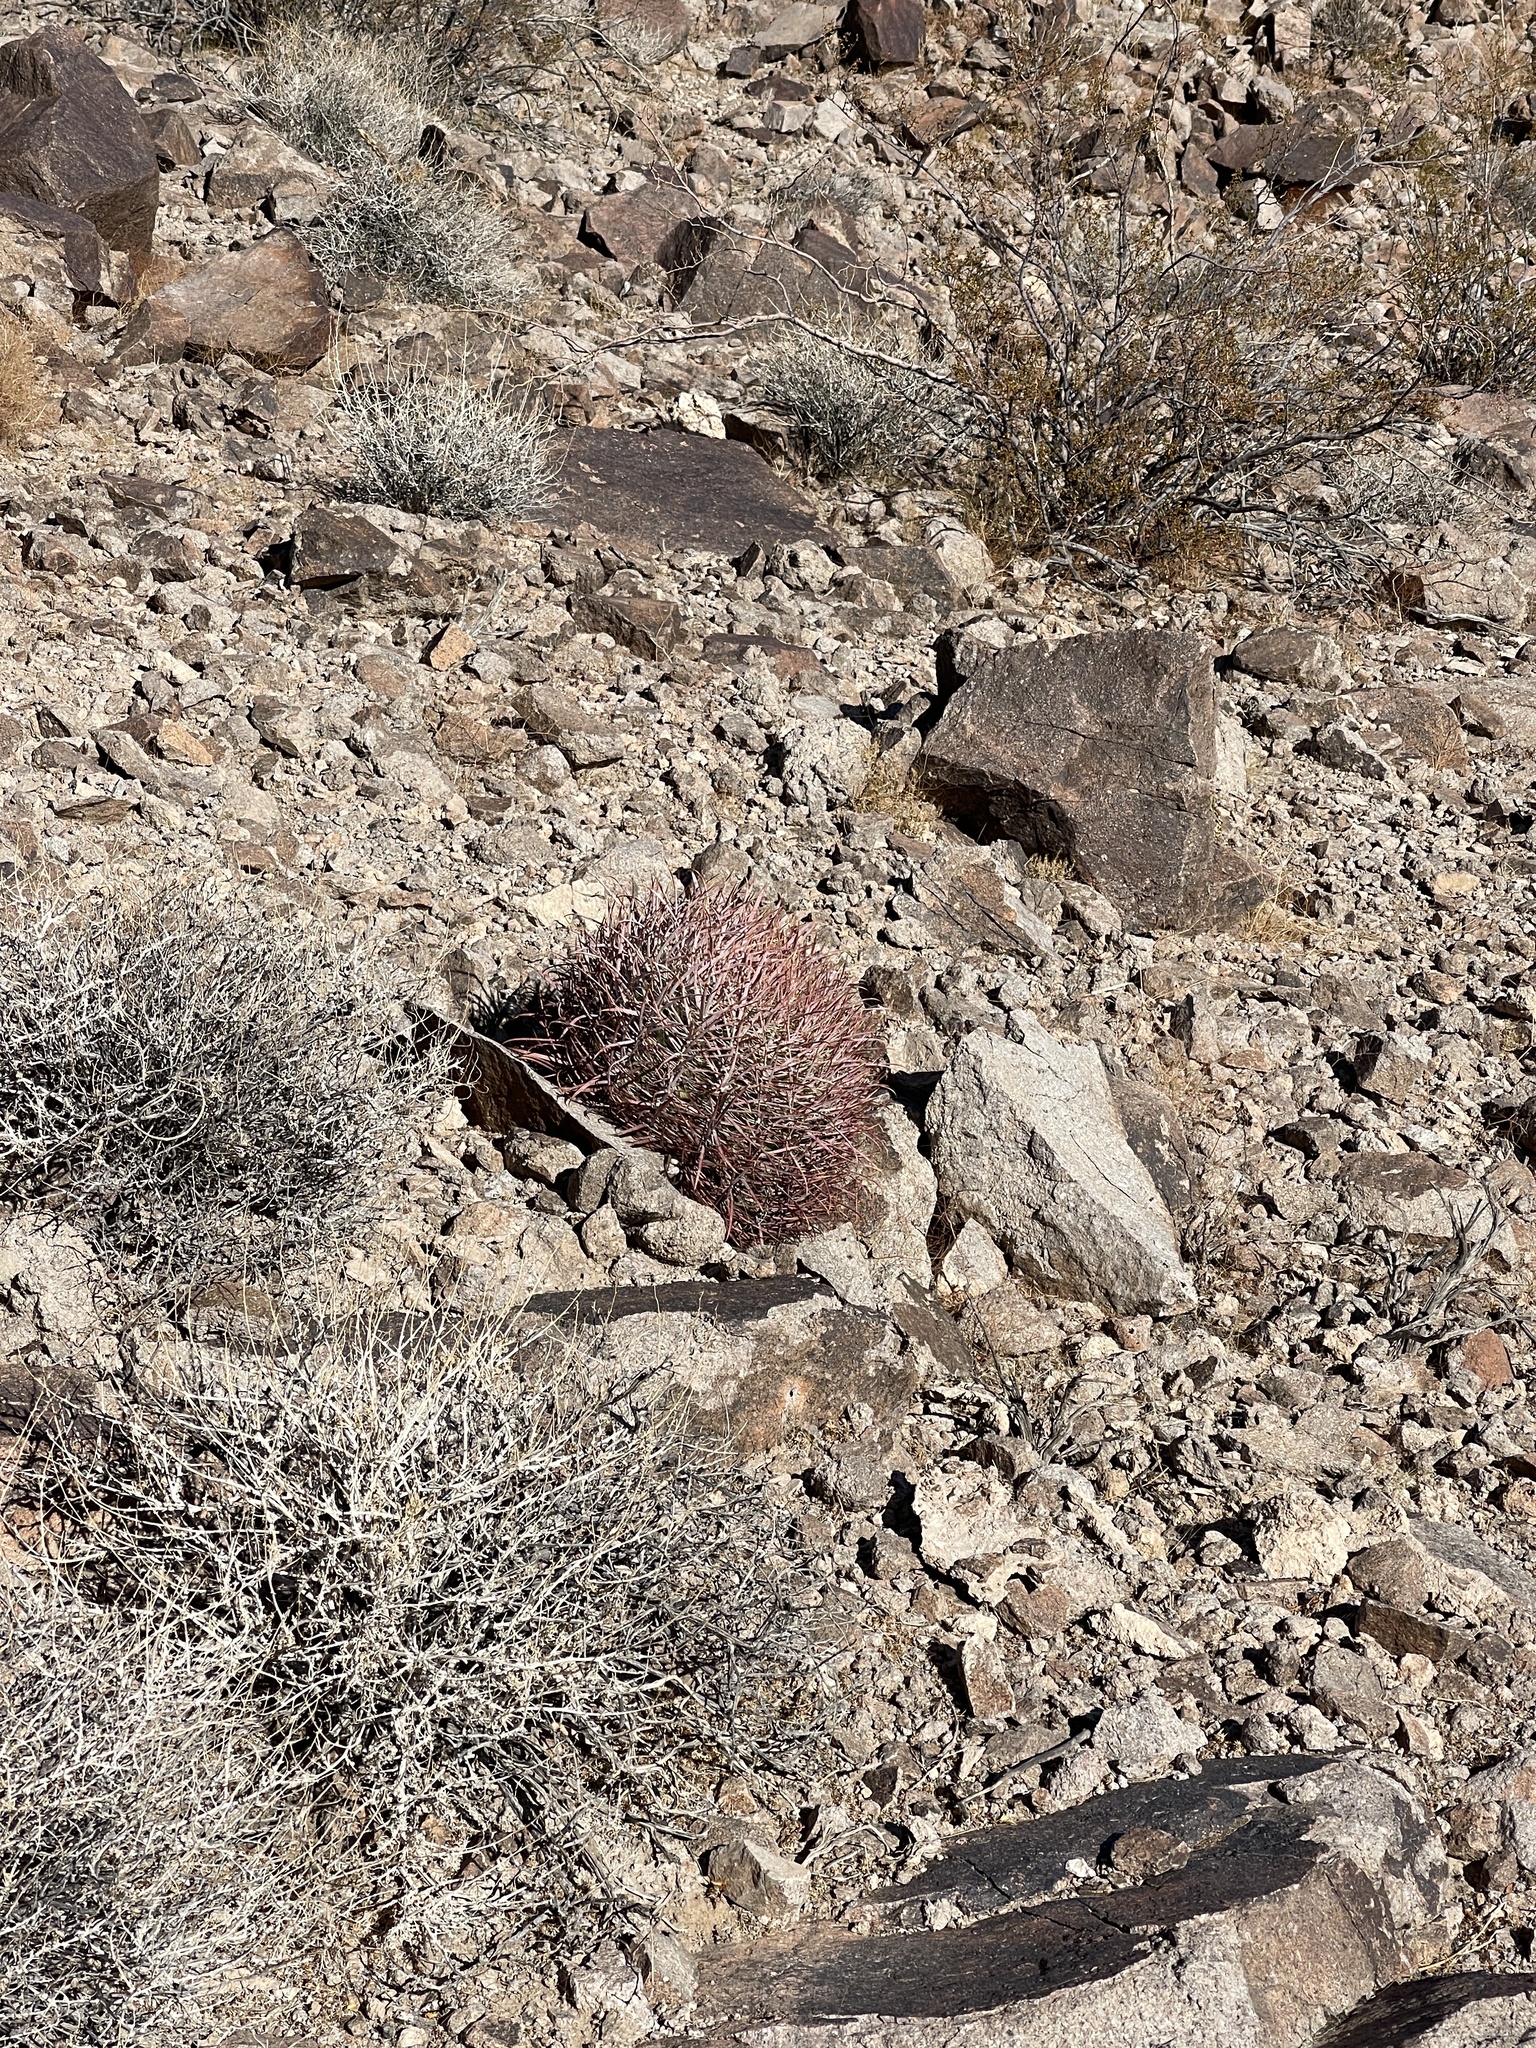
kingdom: Plantae
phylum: Tracheophyta
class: Magnoliopsida
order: Caryophyllales
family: Cactaceae
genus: Ferocactus
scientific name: Ferocactus cylindraceus
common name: California barrel cactus
